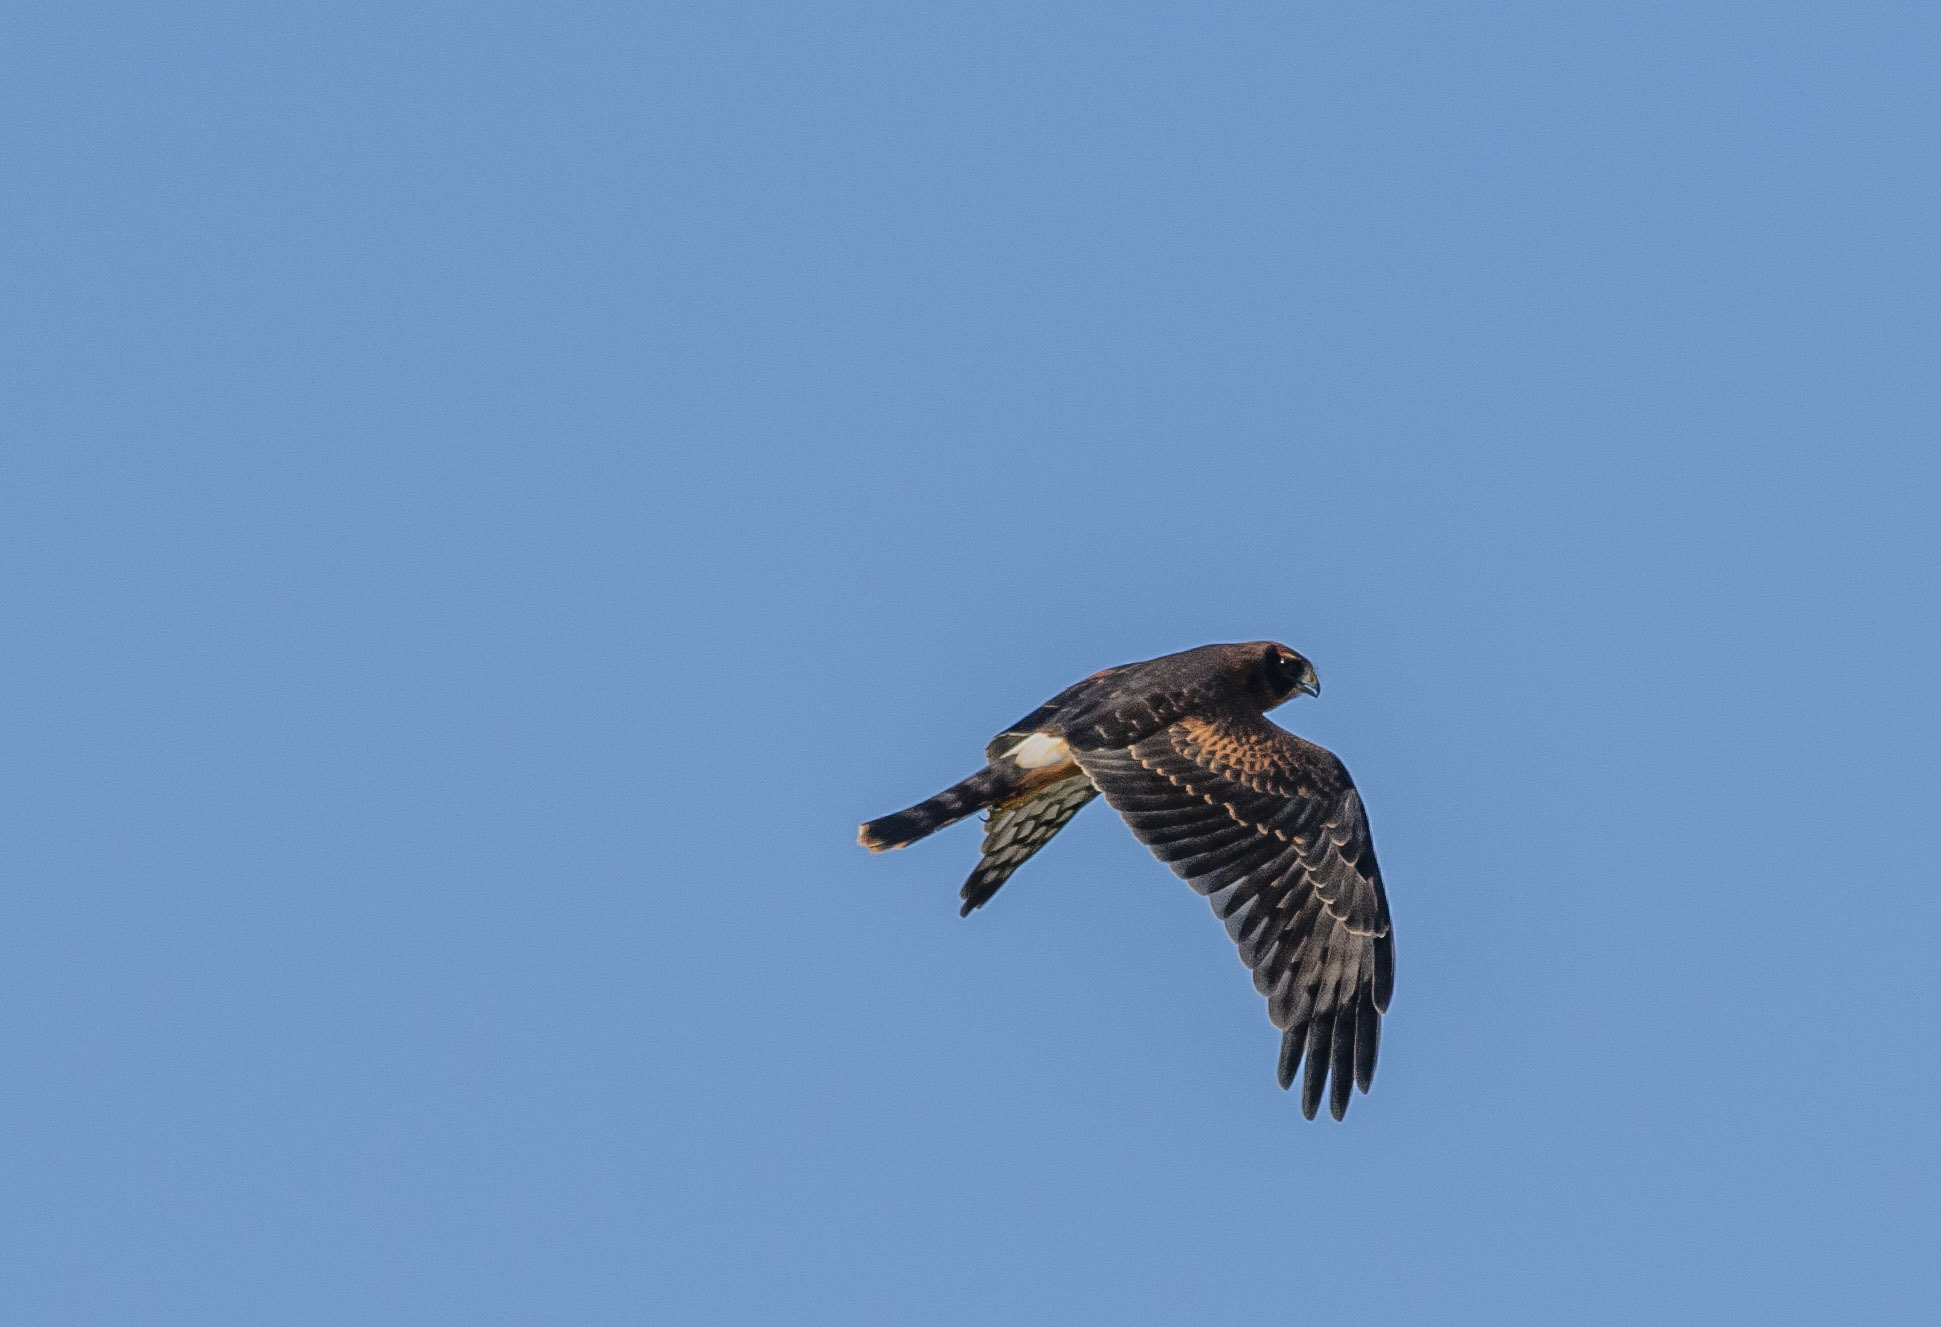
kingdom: Animalia
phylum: Chordata
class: Aves
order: Accipitriformes
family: Accipitridae
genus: Circus
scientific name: Circus cyaneus
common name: Hen harrier
